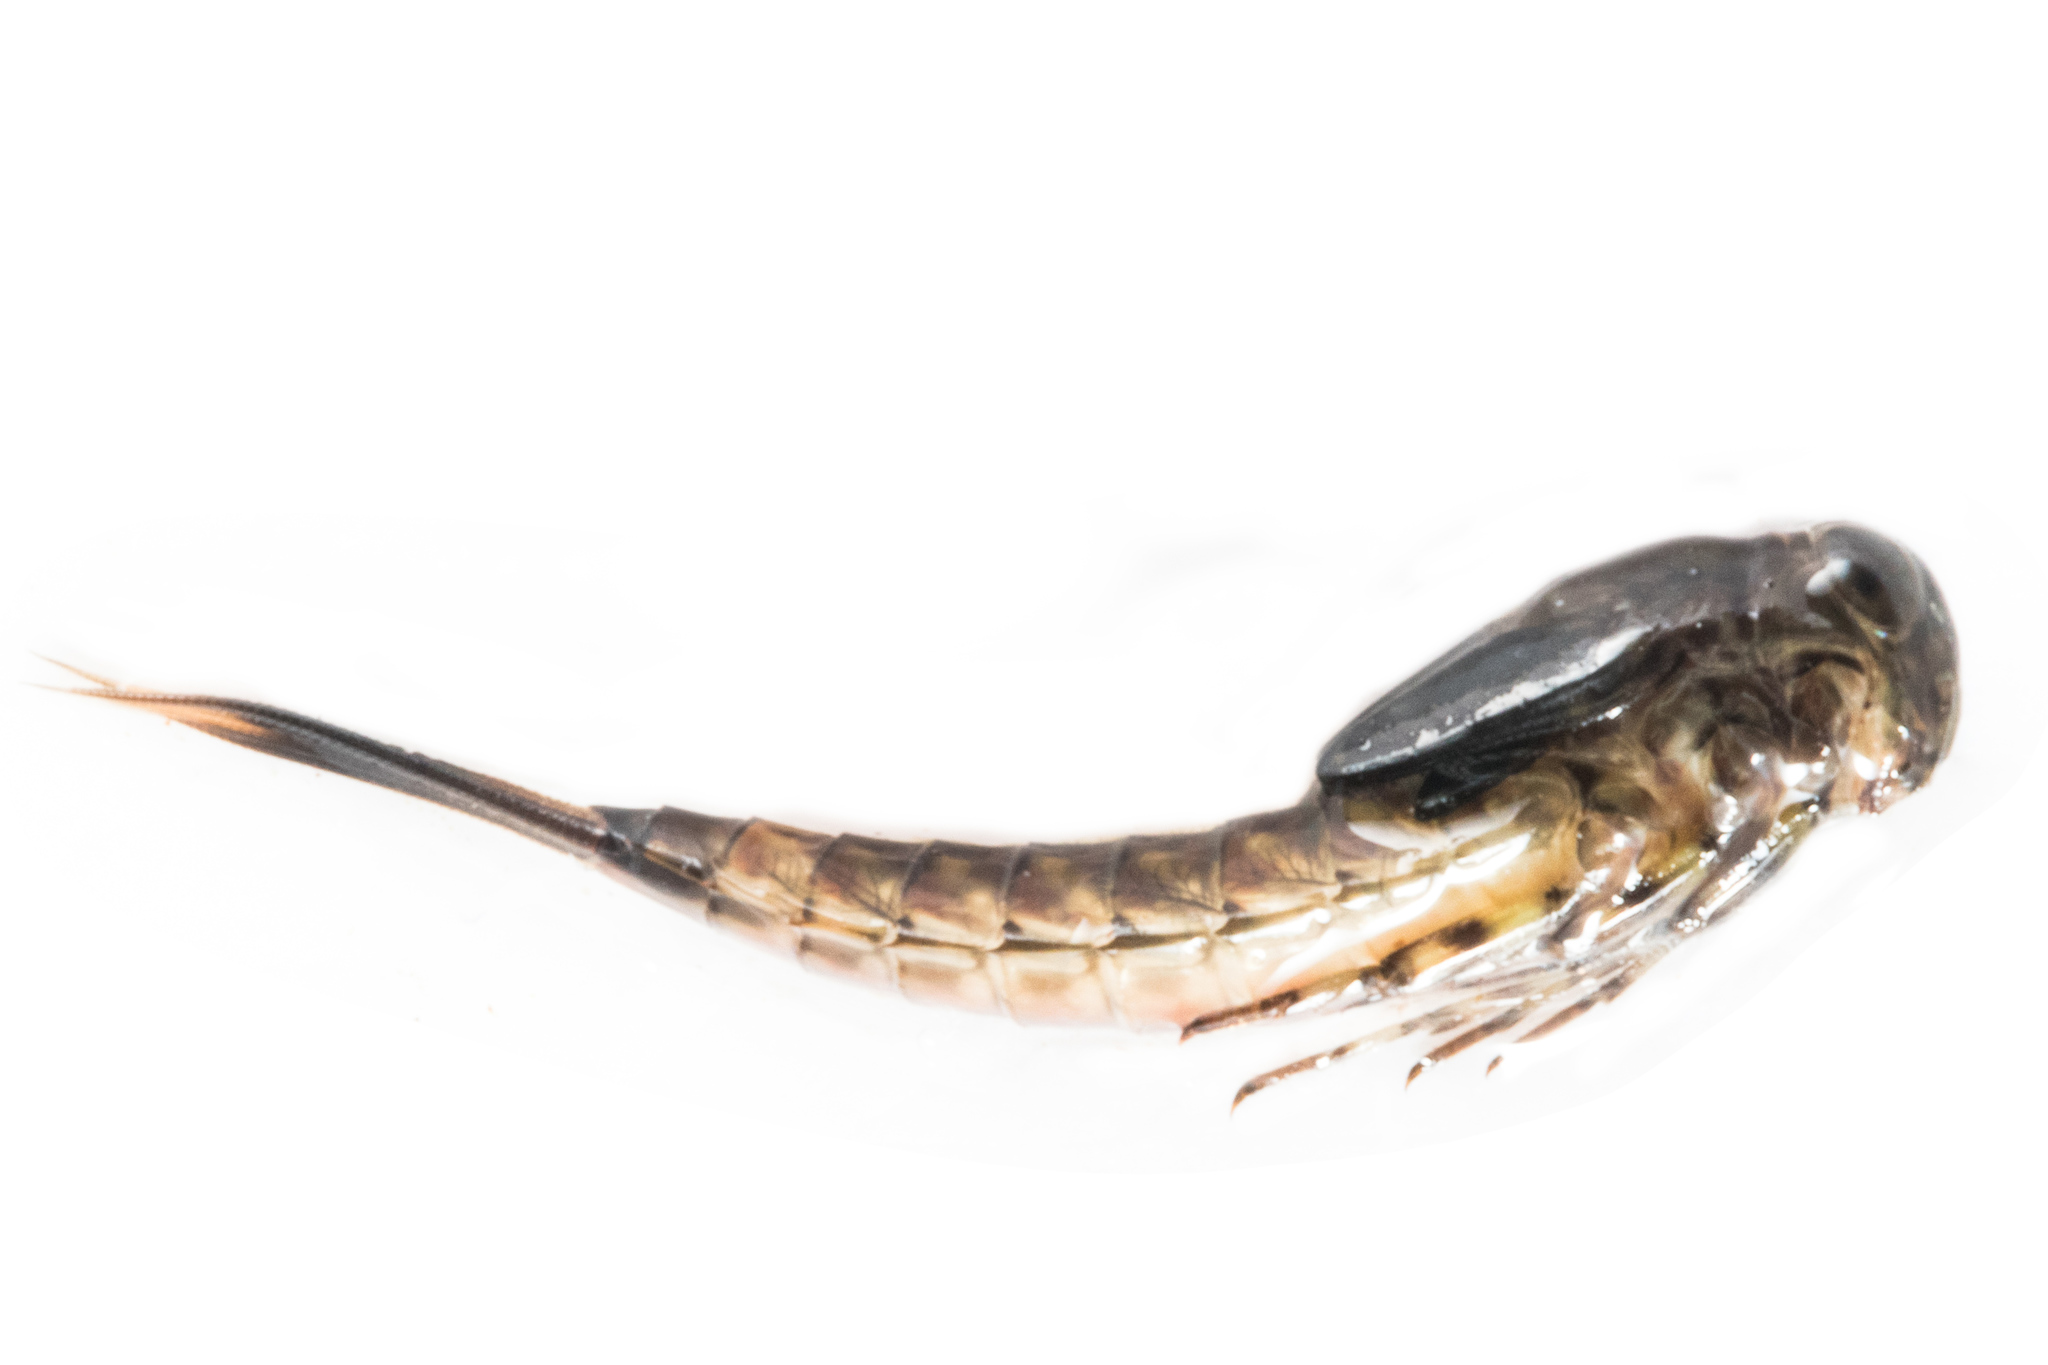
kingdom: Animalia
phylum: Arthropoda
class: Insecta
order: Ephemeroptera
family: Nesameletidae
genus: Nesameletus
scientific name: Nesameletus ornatus
